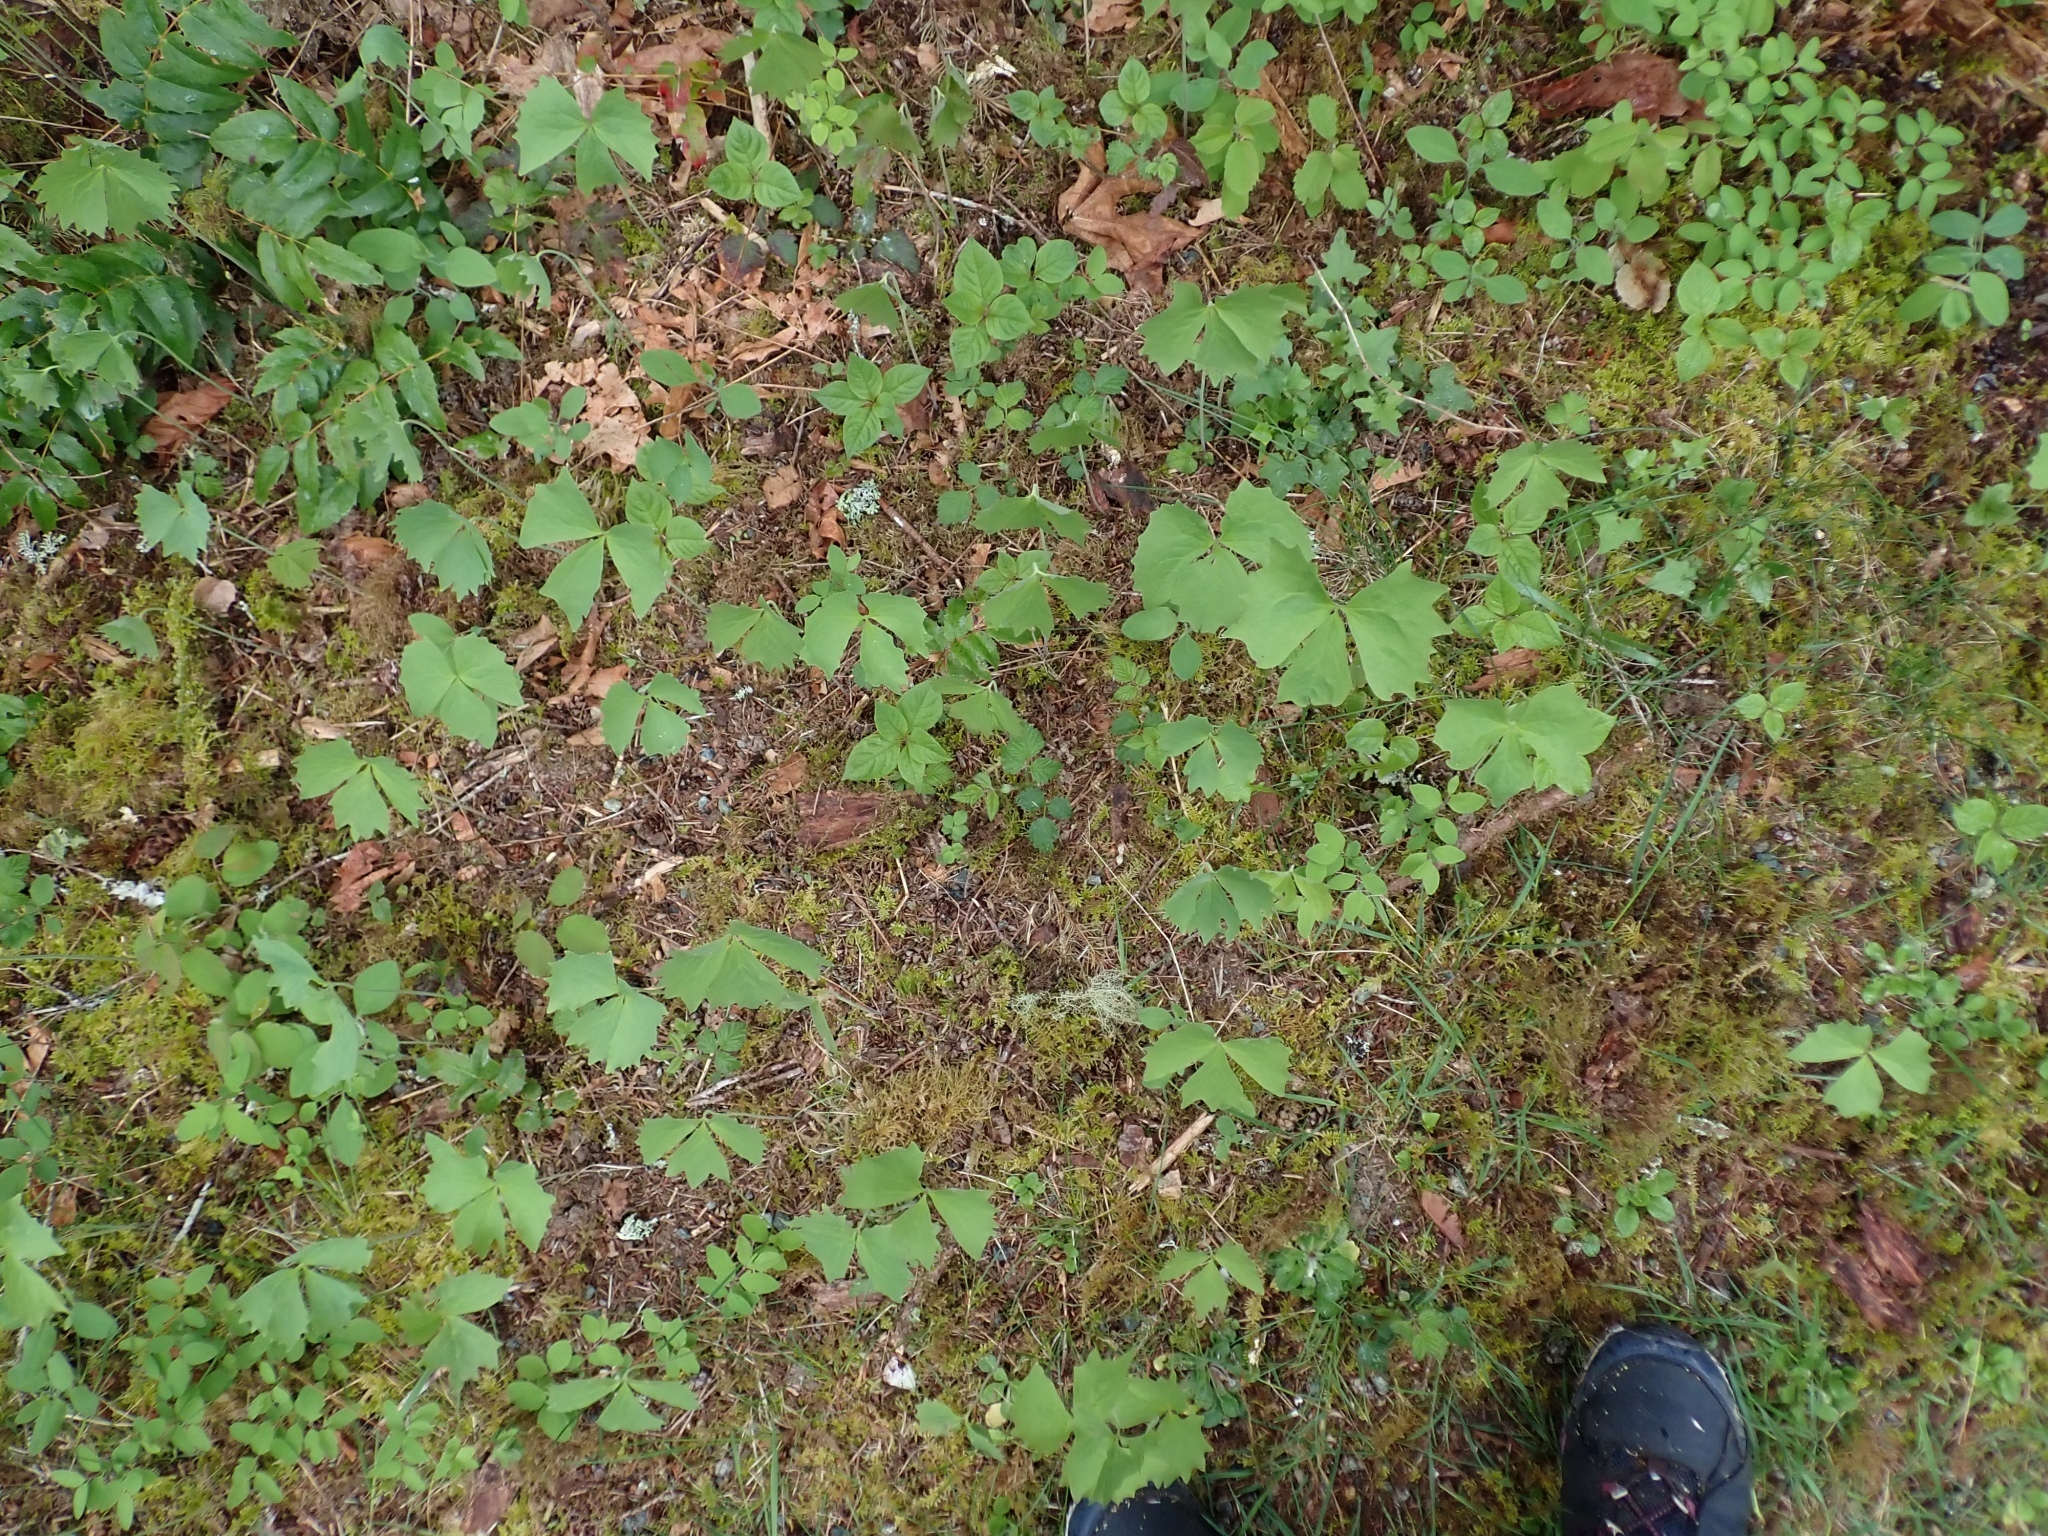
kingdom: Plantae
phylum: Tracheophyta
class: Magnoliopsida
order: Ranunculales
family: Berberidaceae
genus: Achlys
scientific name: Achlys triphylla
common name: Vanilla-leaf
